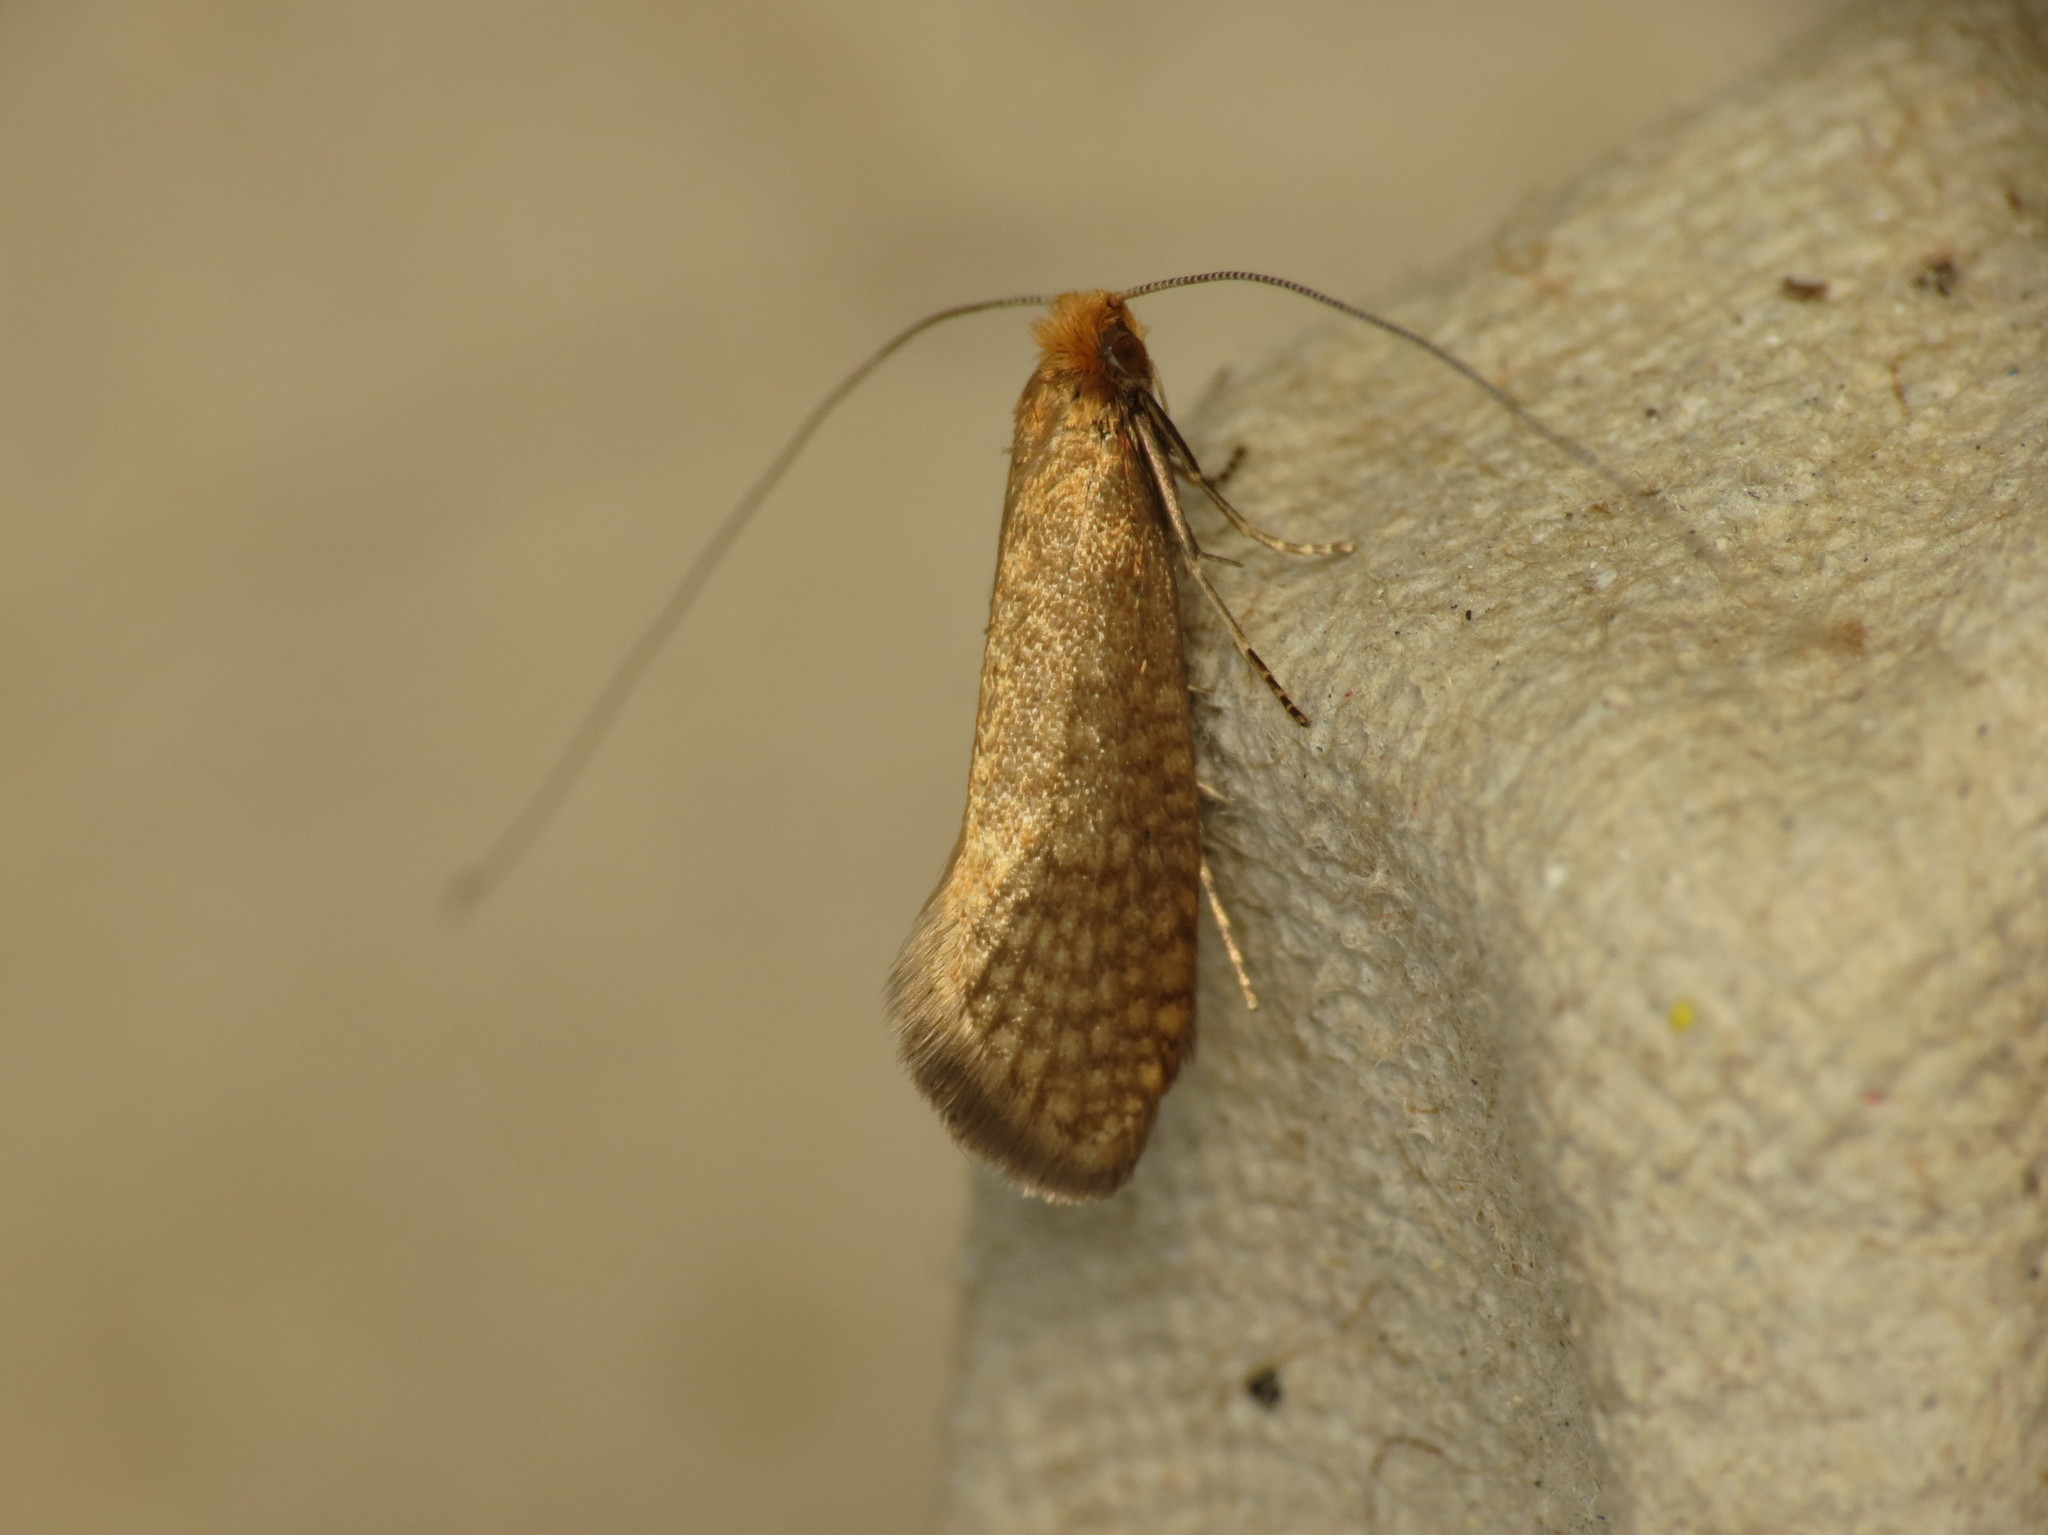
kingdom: Animalia
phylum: Arthropoda
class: Insecta
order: Lepidoptera
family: Adelidae
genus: Nematopogon
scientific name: Nematopogon adansoniella
